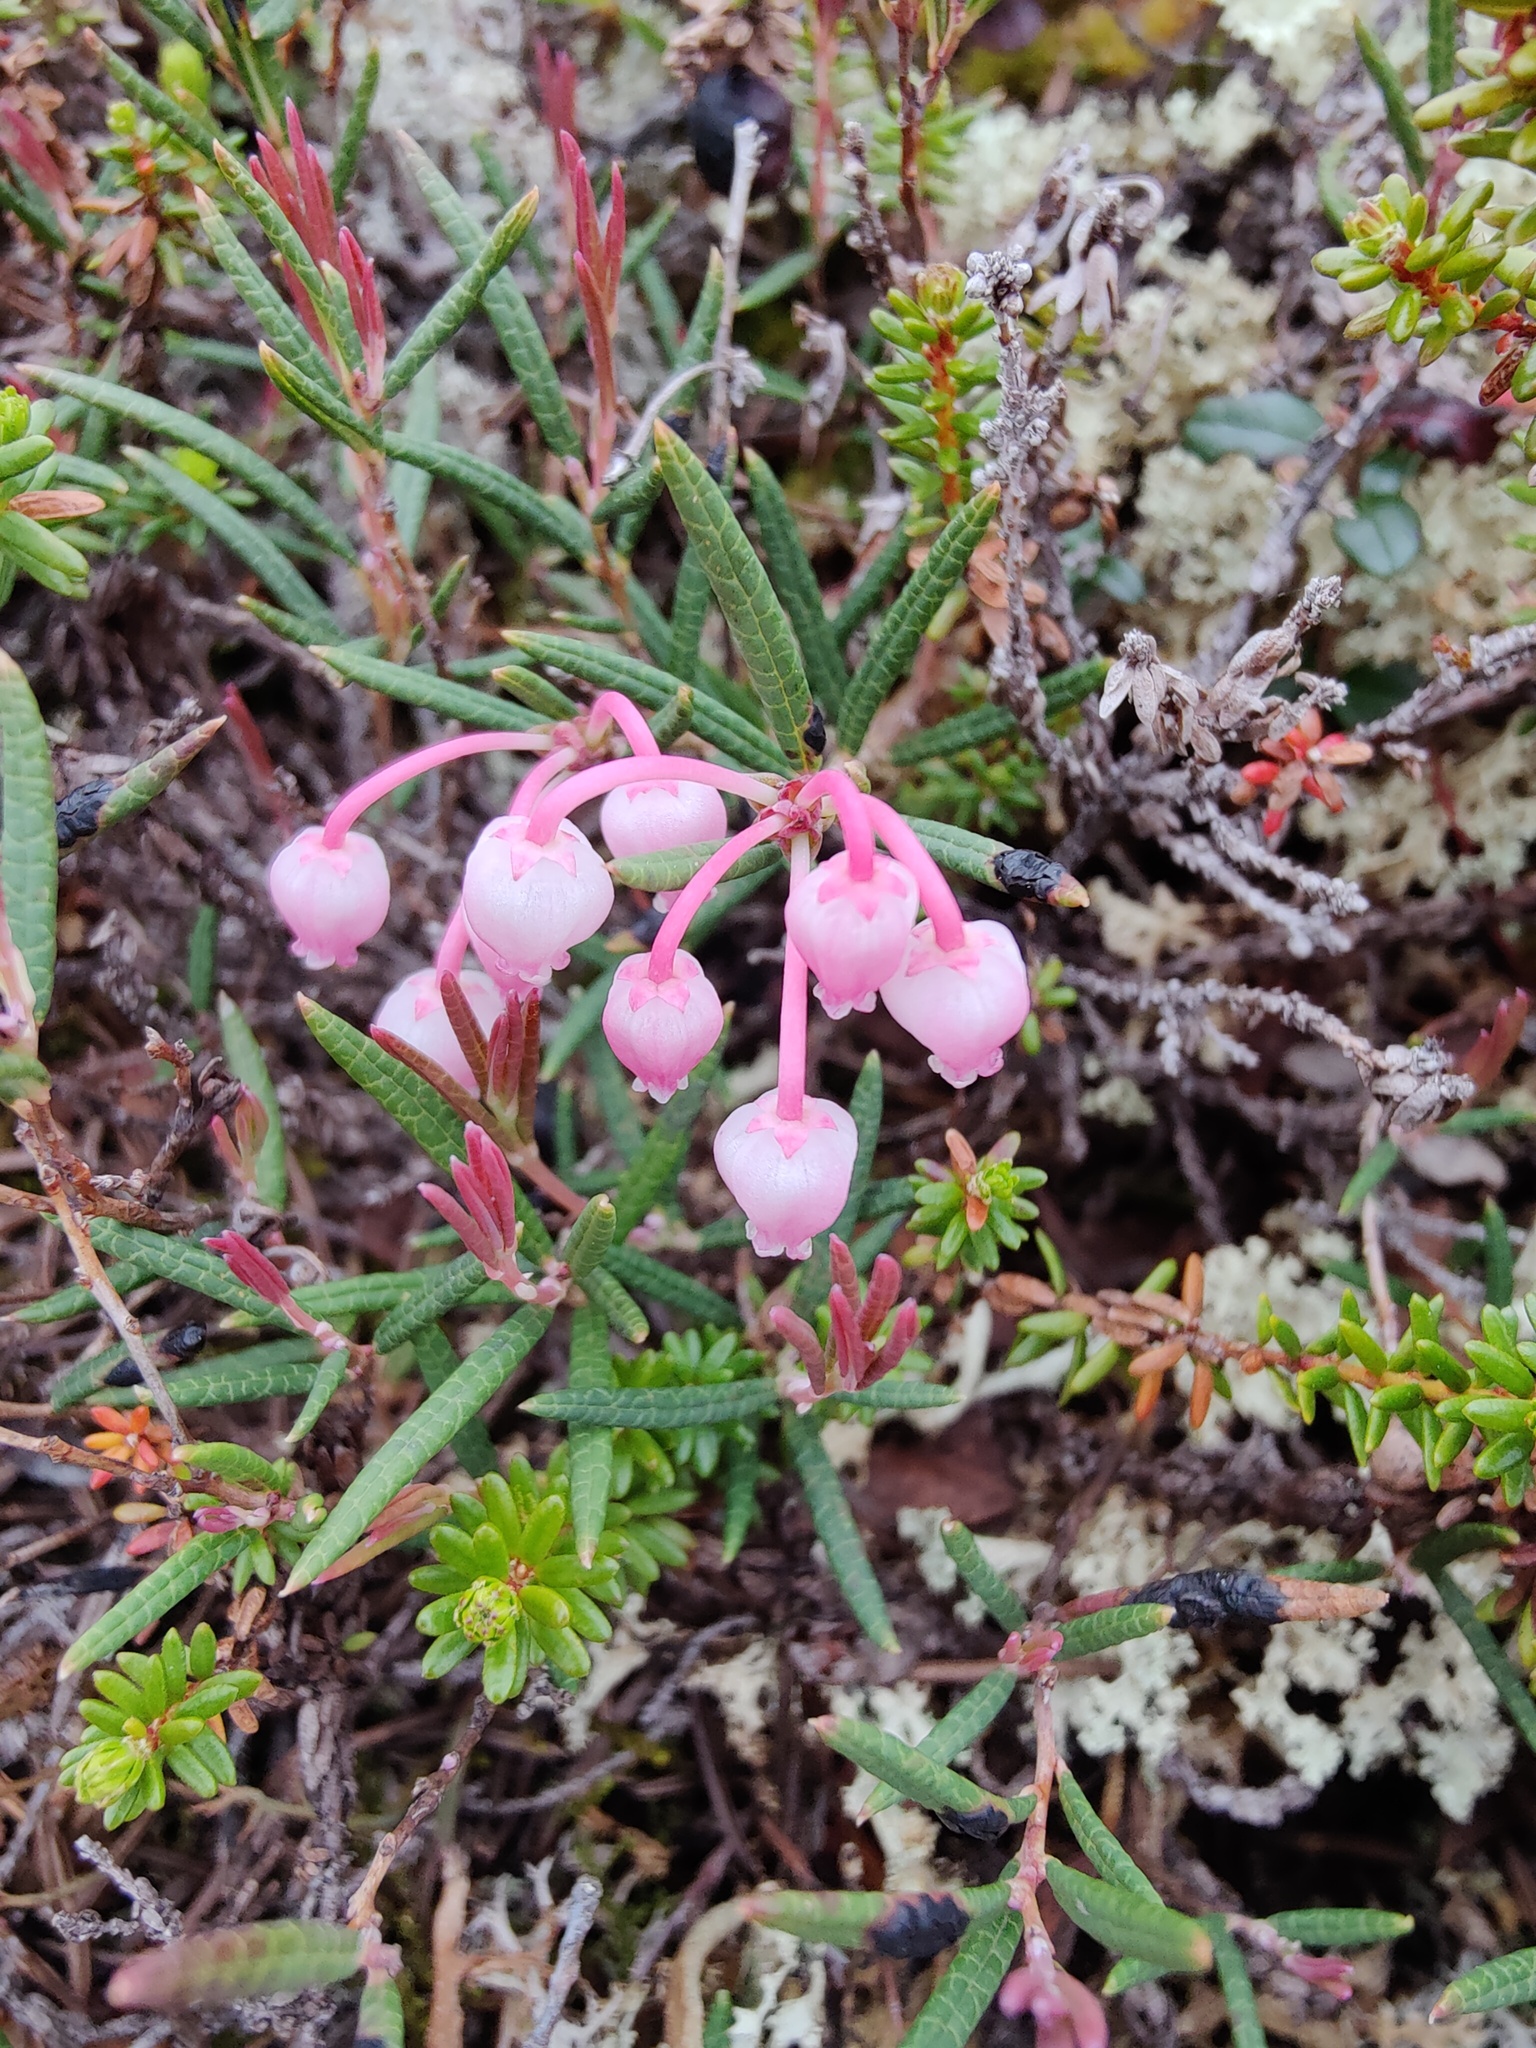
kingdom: Plantae
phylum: Tracheophyta
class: Magnoliopsida
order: Ericales
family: Ericaceae
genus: Andromeda
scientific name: Andromeda polifolia
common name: Bog-rosemary
